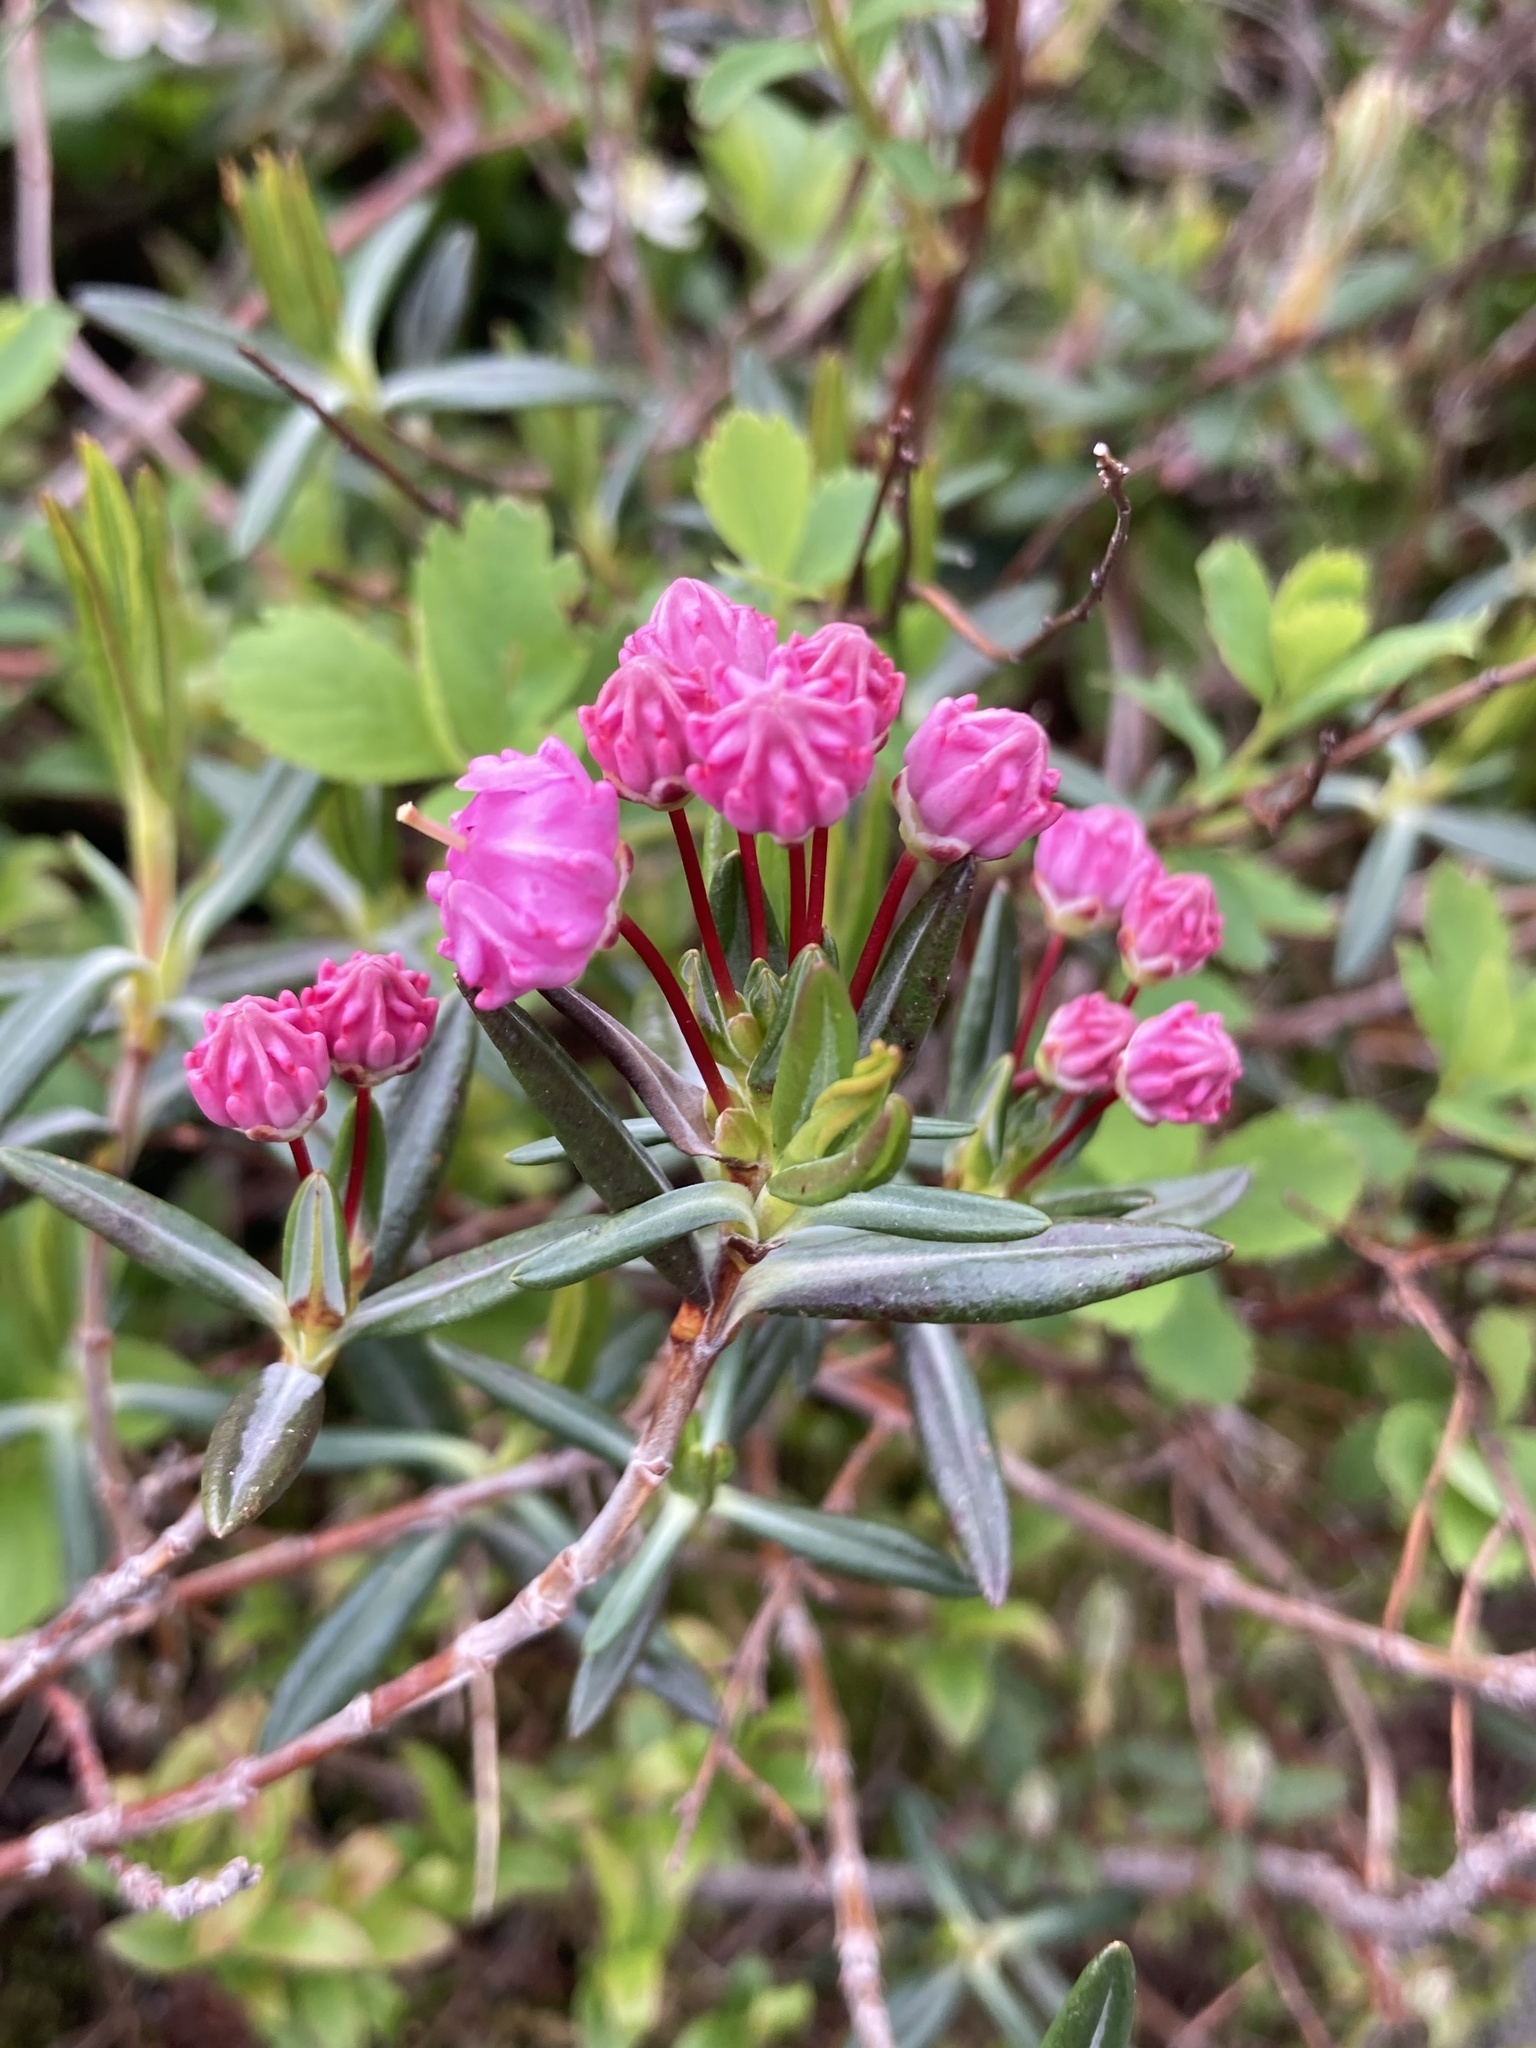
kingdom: Plantae
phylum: Tracheophyta
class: Magnoliopsida
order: Ericales
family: Ericaceae
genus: Kalmia
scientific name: Kalmia polifolia
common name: Bog-laurel
